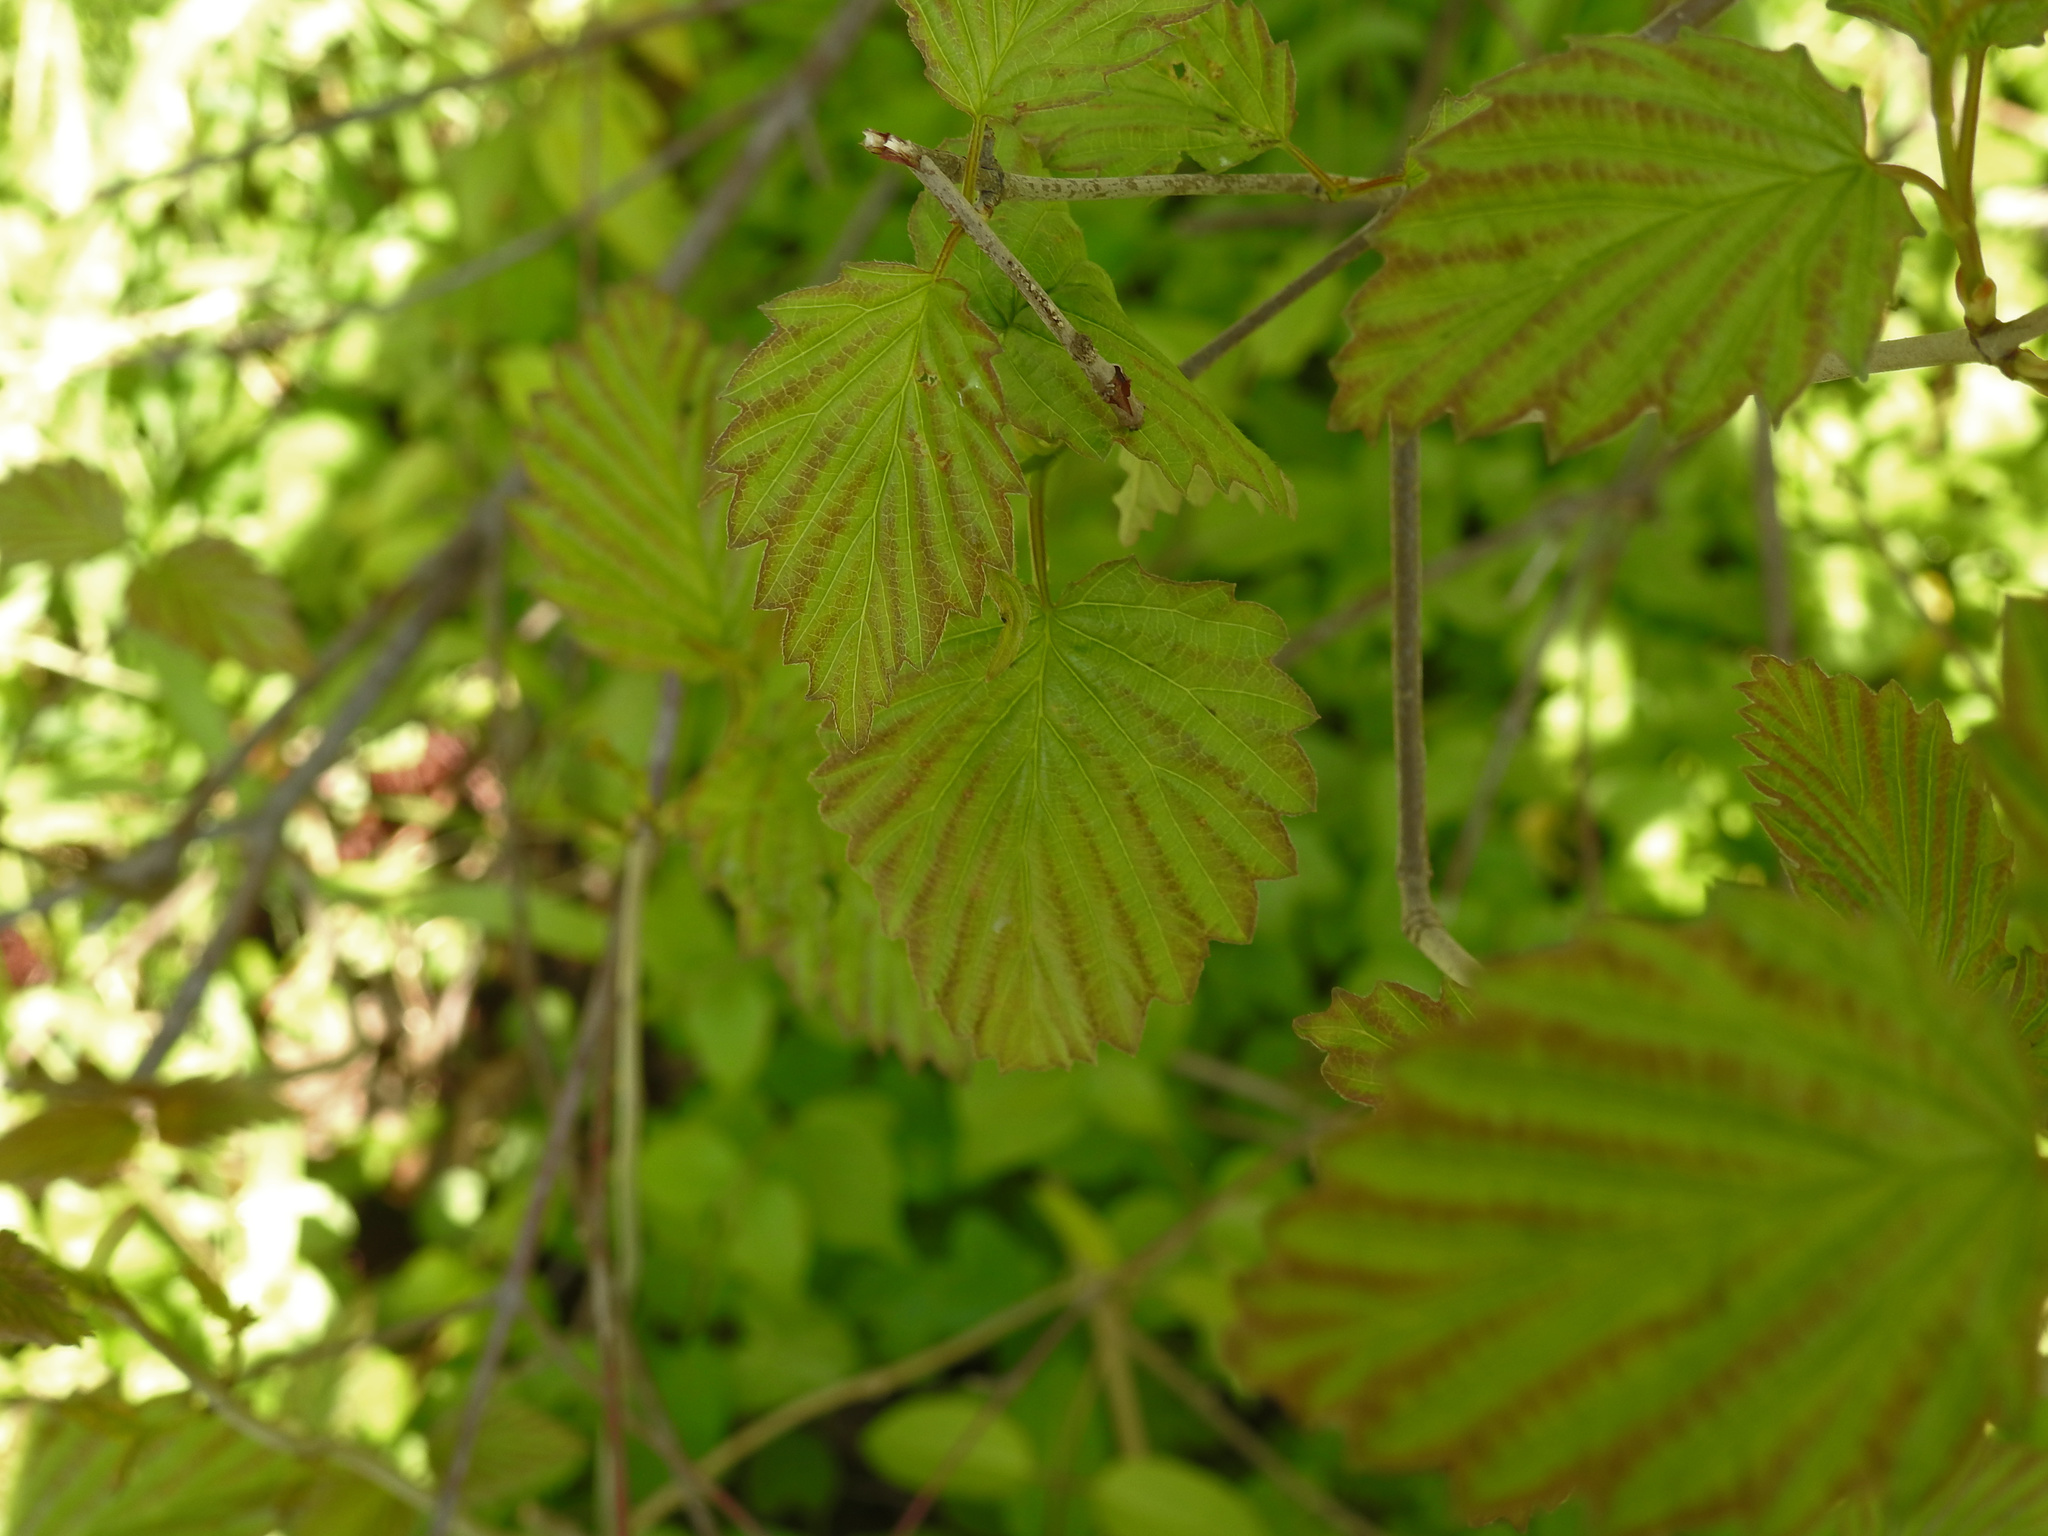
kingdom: Plantae
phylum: Tracheophyta
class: Magnoliopsida
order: Dipsacales
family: Viburnaceae
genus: Viburnum
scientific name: Viburnum dentatum
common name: Arrow-wood
